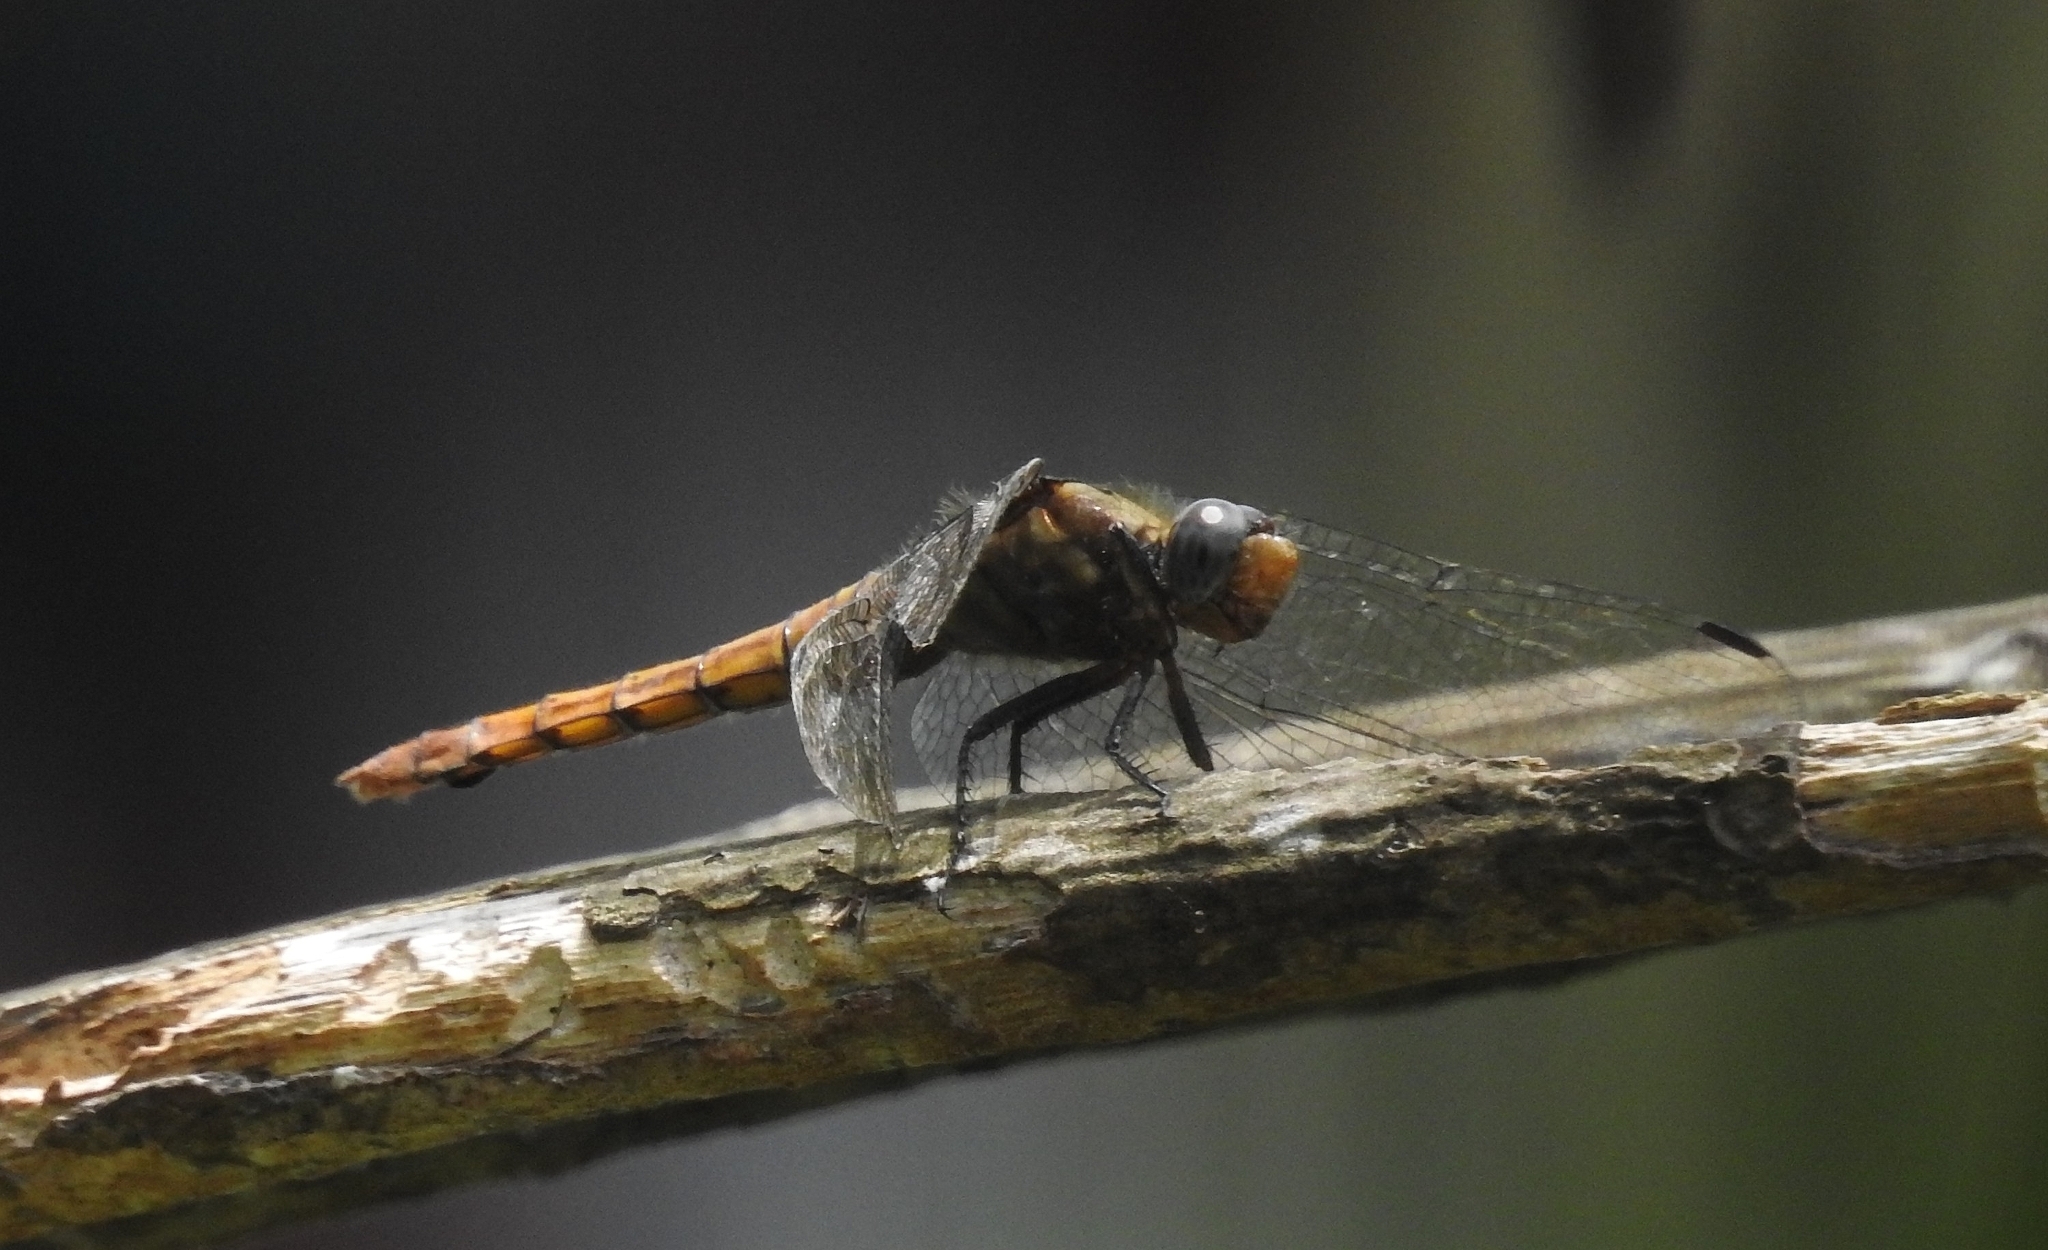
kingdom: Animalia
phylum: Arthropoda
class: Insecta
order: Odonata
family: Libellulidae
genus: Orthetrum
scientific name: Orthetrum pruinosum
